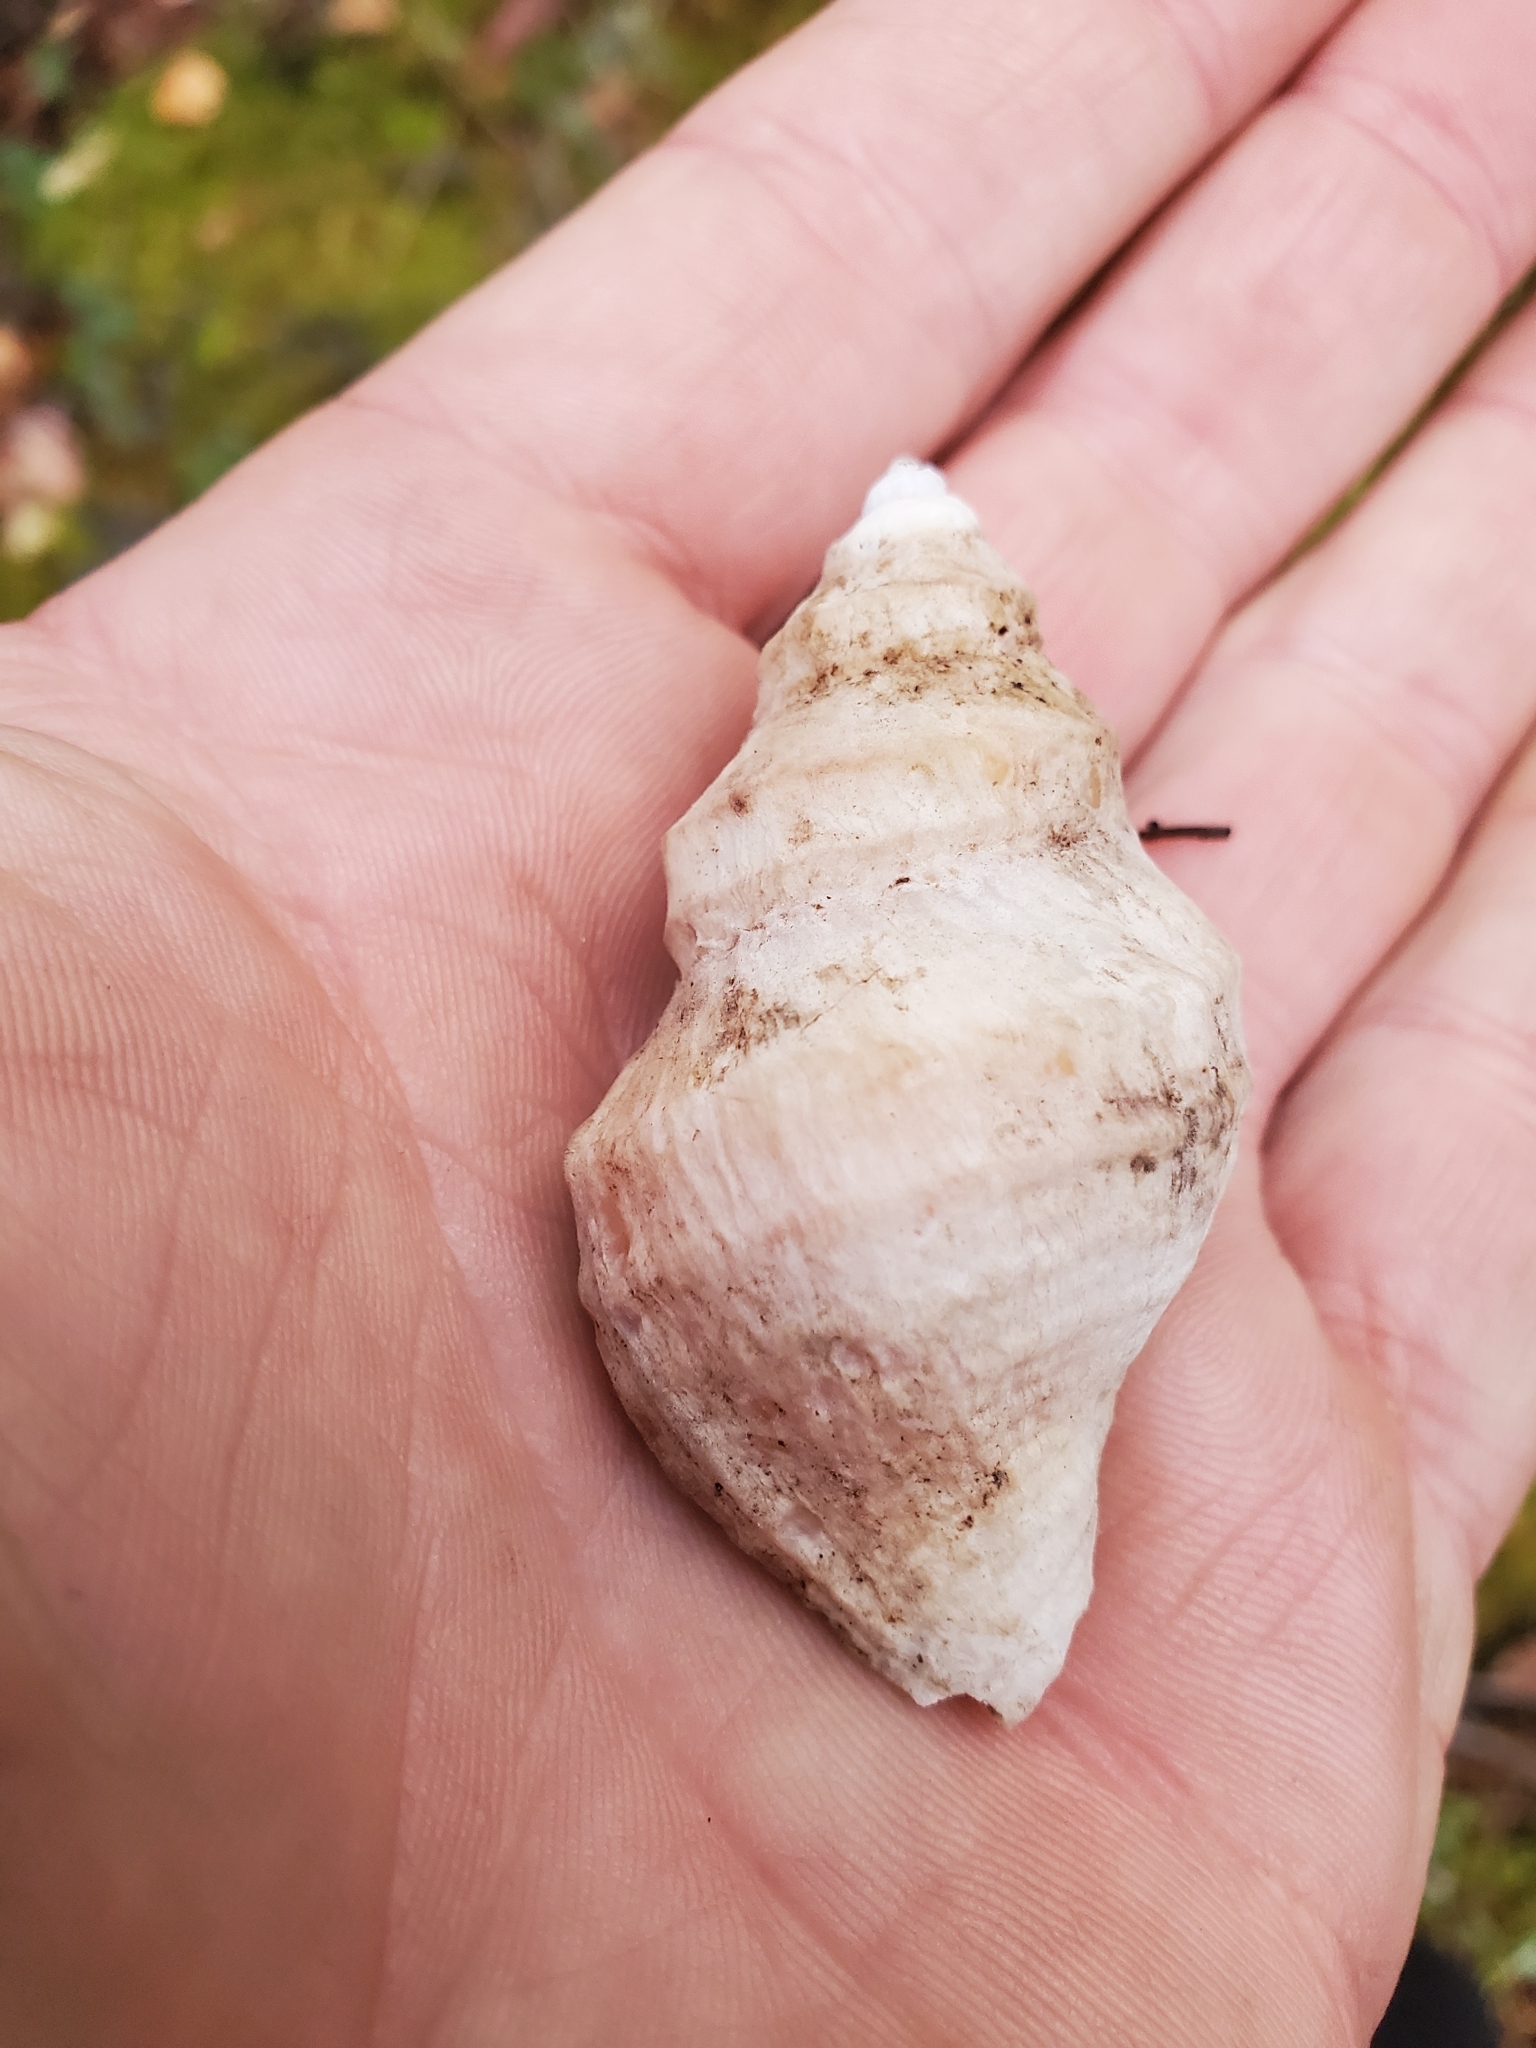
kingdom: Animalia
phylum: Mollusca
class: Gastropoda
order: Neogastropoda
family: Muricidae
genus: Nucella
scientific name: Nucella lamellosa
